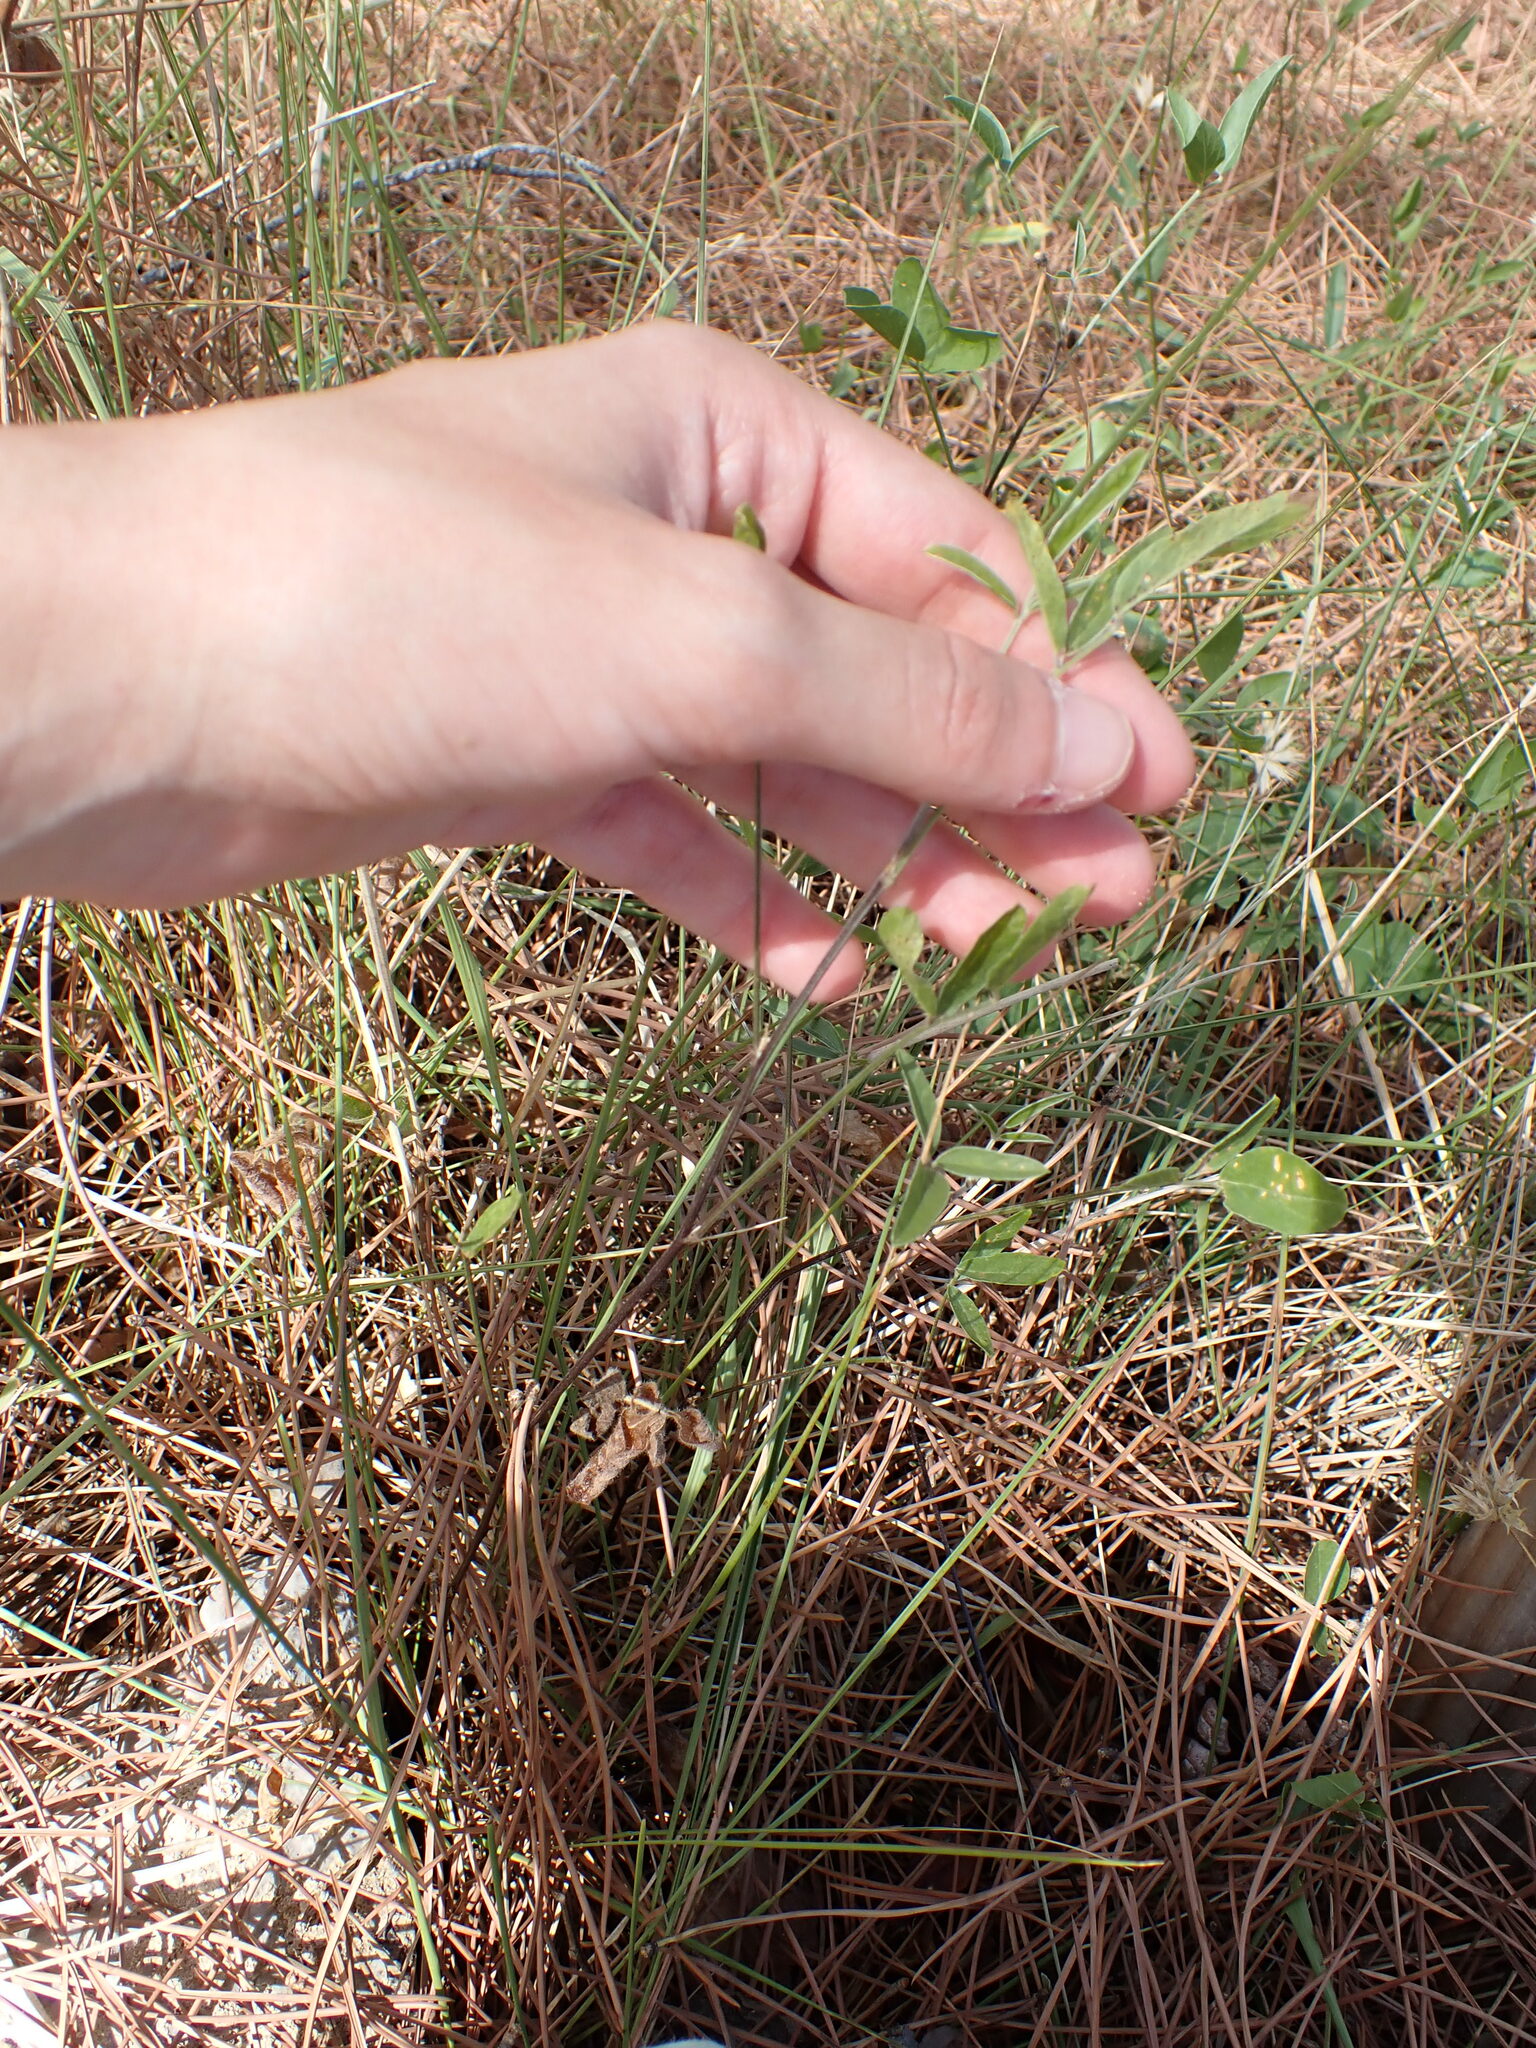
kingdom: Plantae
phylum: Tracheophyta
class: Magnoliopsida
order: Fabales
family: Fabaceae
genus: Bituminaria
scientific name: Bituminaria bituminosa
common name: Arabian pea
